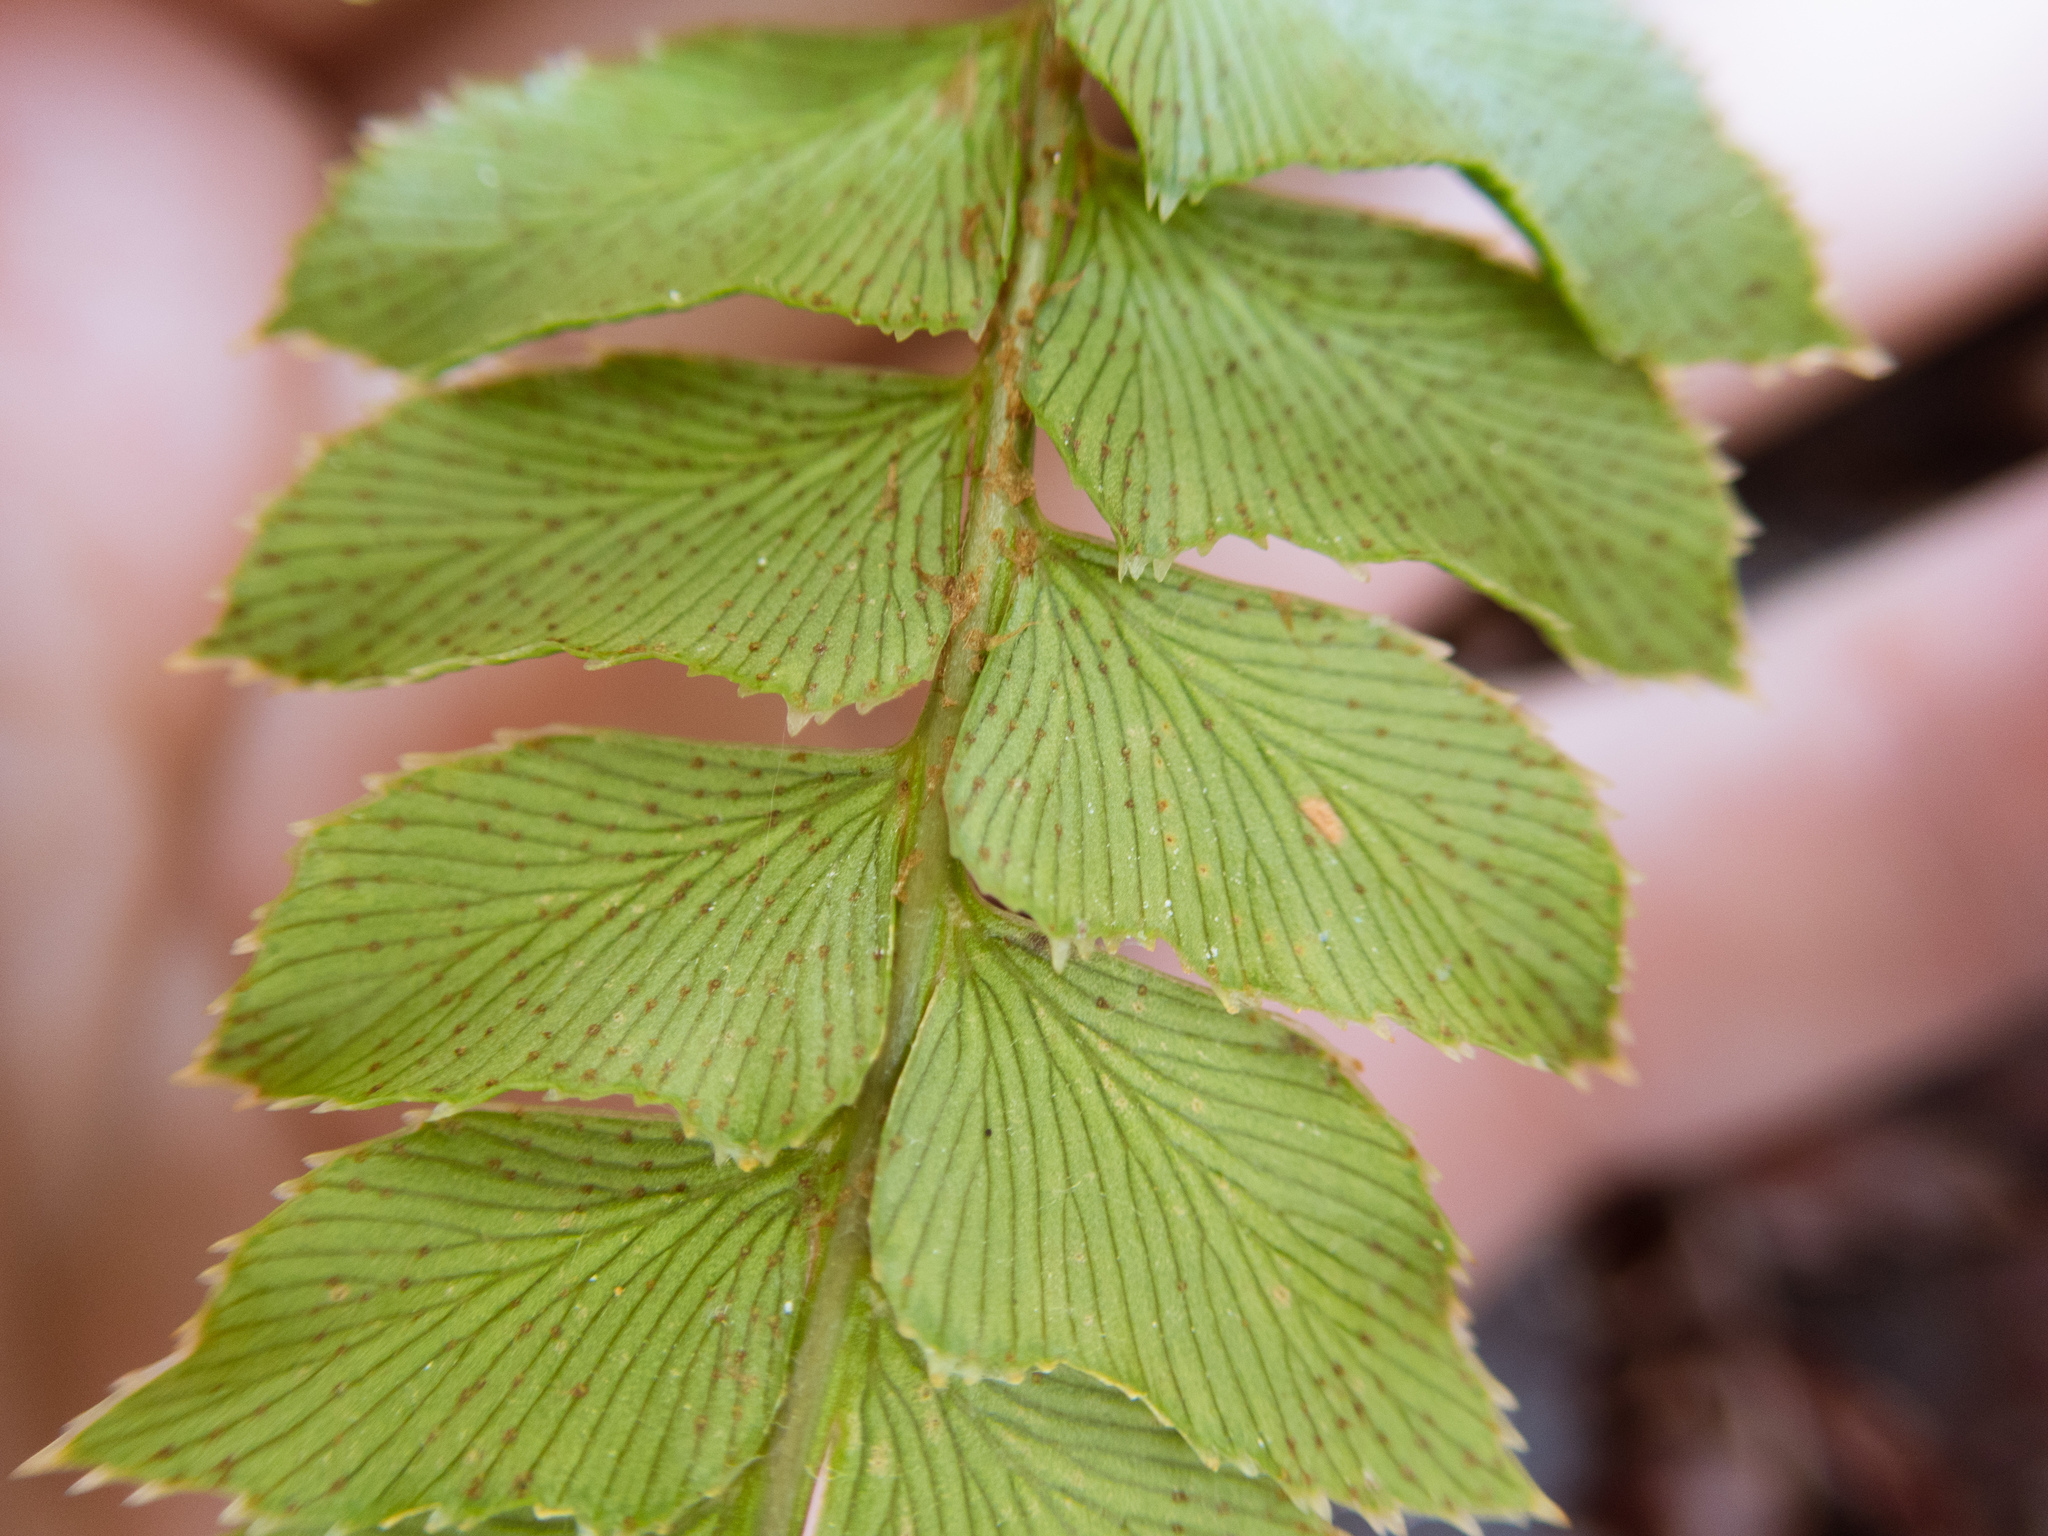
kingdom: Plantae
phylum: Tracheophyta
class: Polypodiopsida
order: Polypodiales
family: Dryopteridaceae
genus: Polystichum
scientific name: Polystichum nepalense
